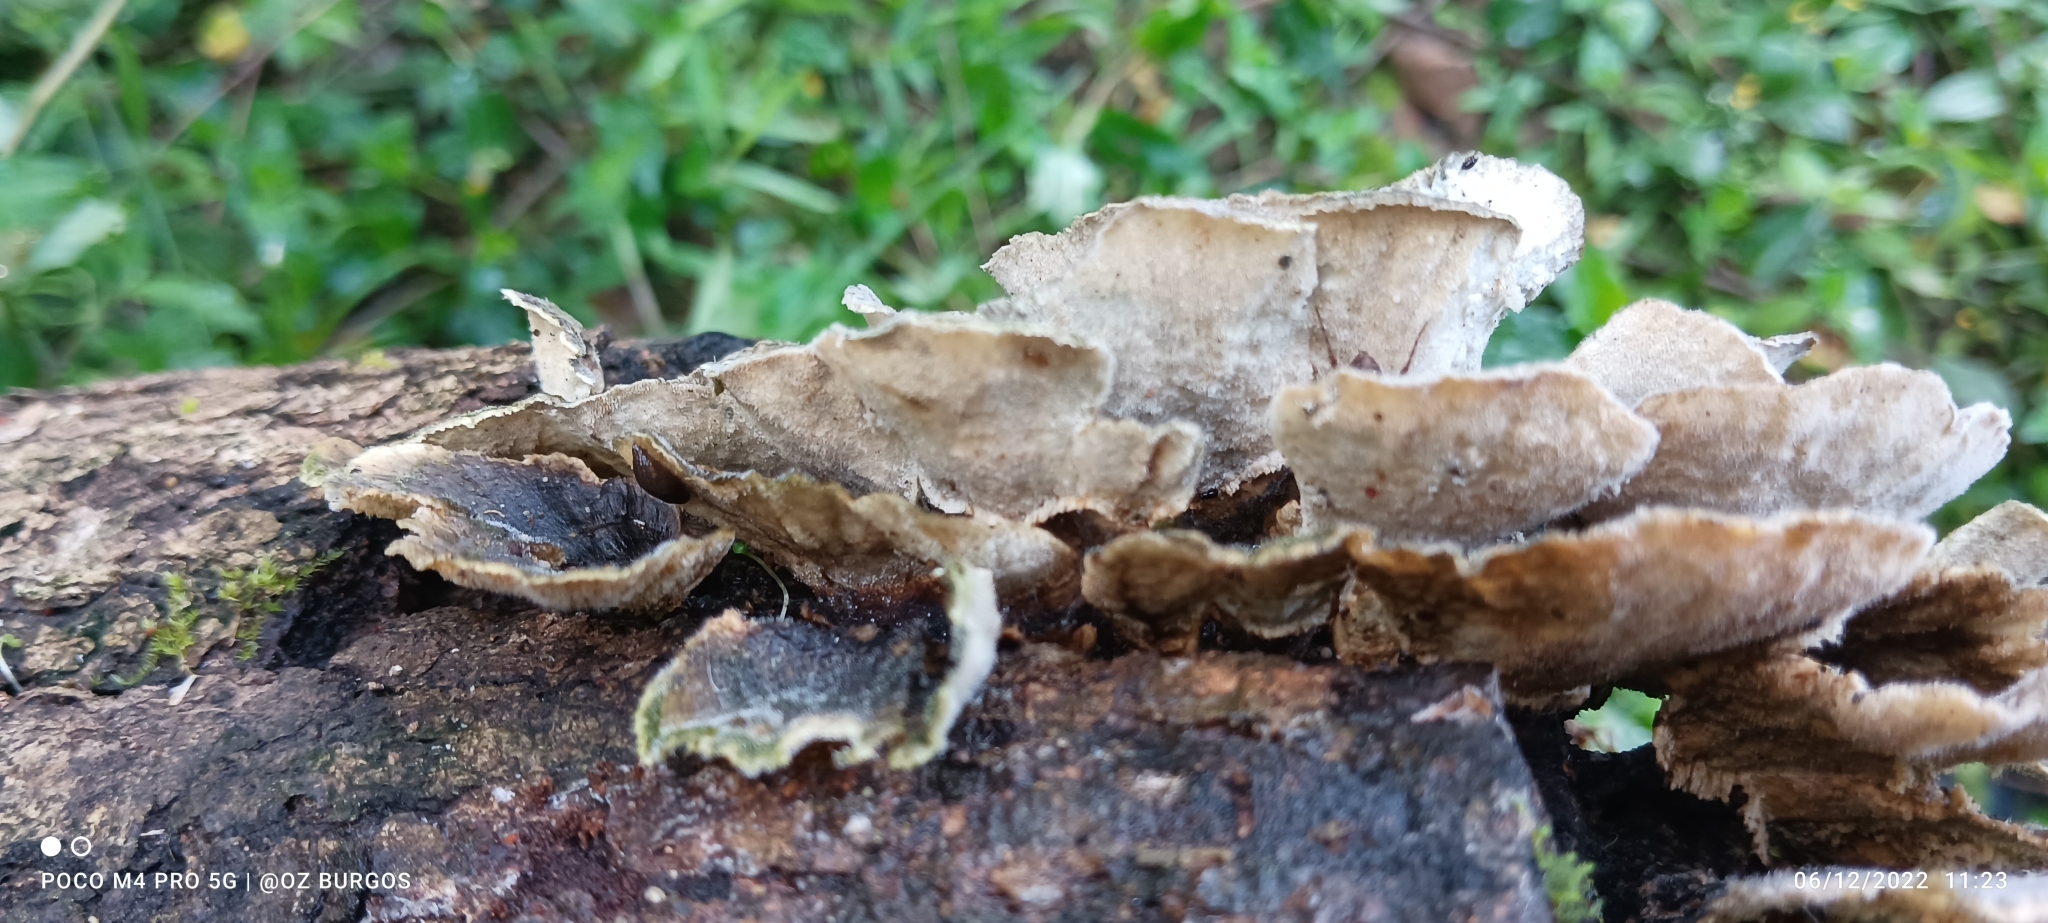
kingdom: Fungi
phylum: Basidiomycota
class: Agaricomycetes
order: Polyporales
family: Polyporaceae
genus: Trametes
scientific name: Trametes versicolor
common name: Turkeytail
